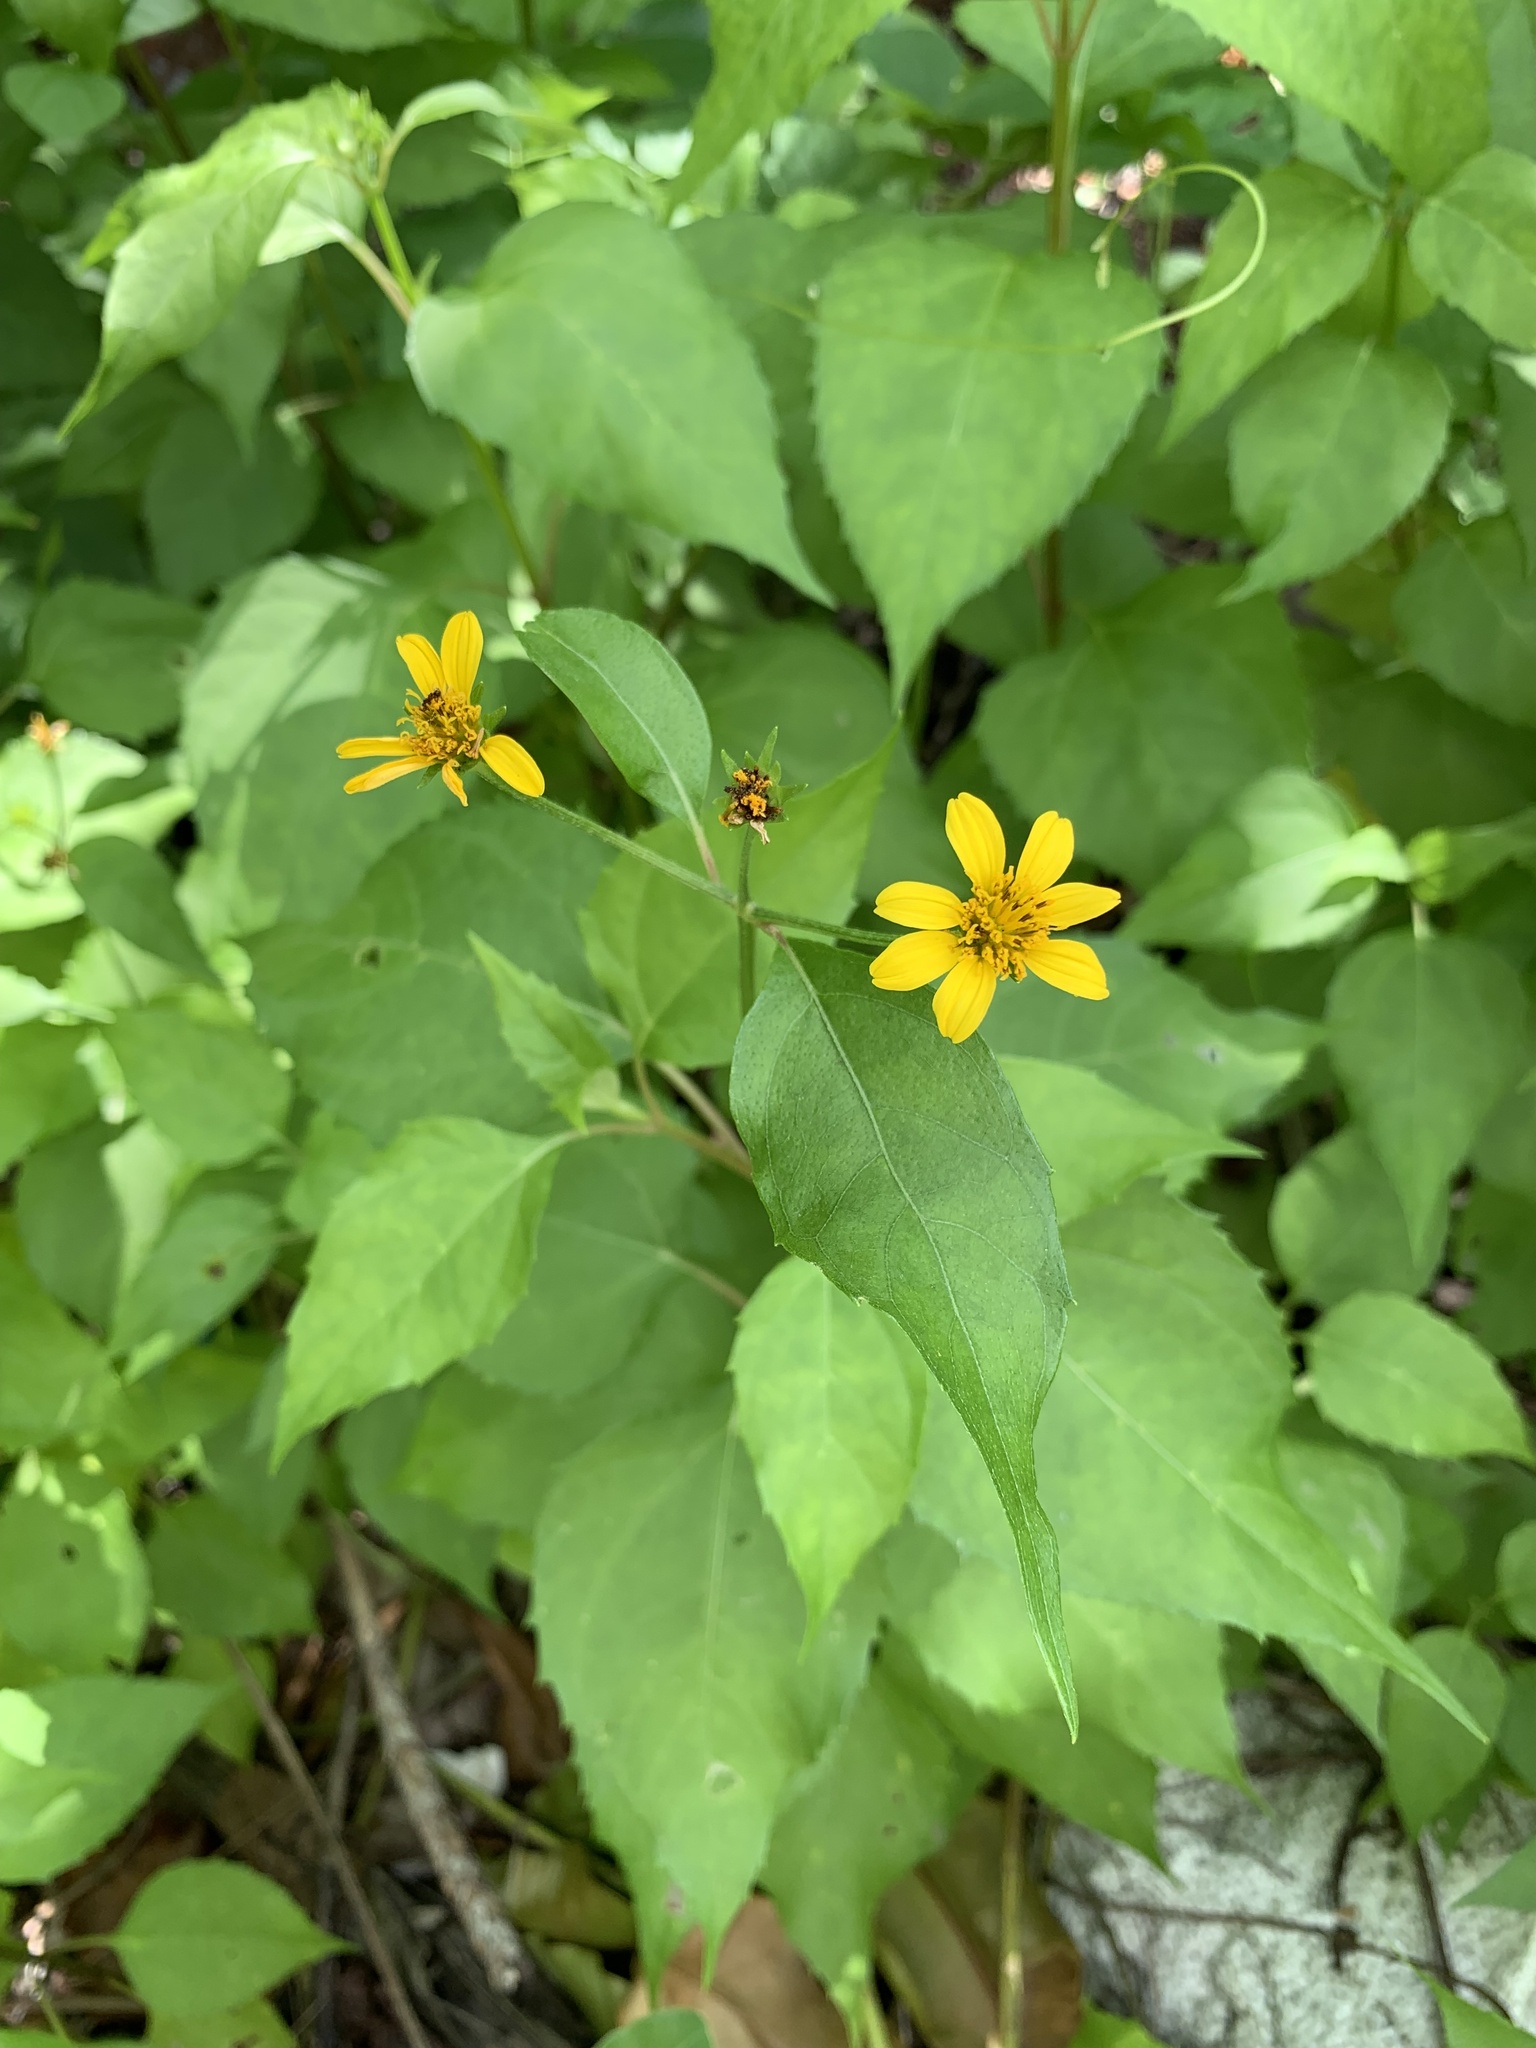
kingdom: Plantae
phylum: Tracheophyta
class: Magnoliopsida
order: Asterales
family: Asteraceae
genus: Wollastonia
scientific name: Wollastonia biflora
